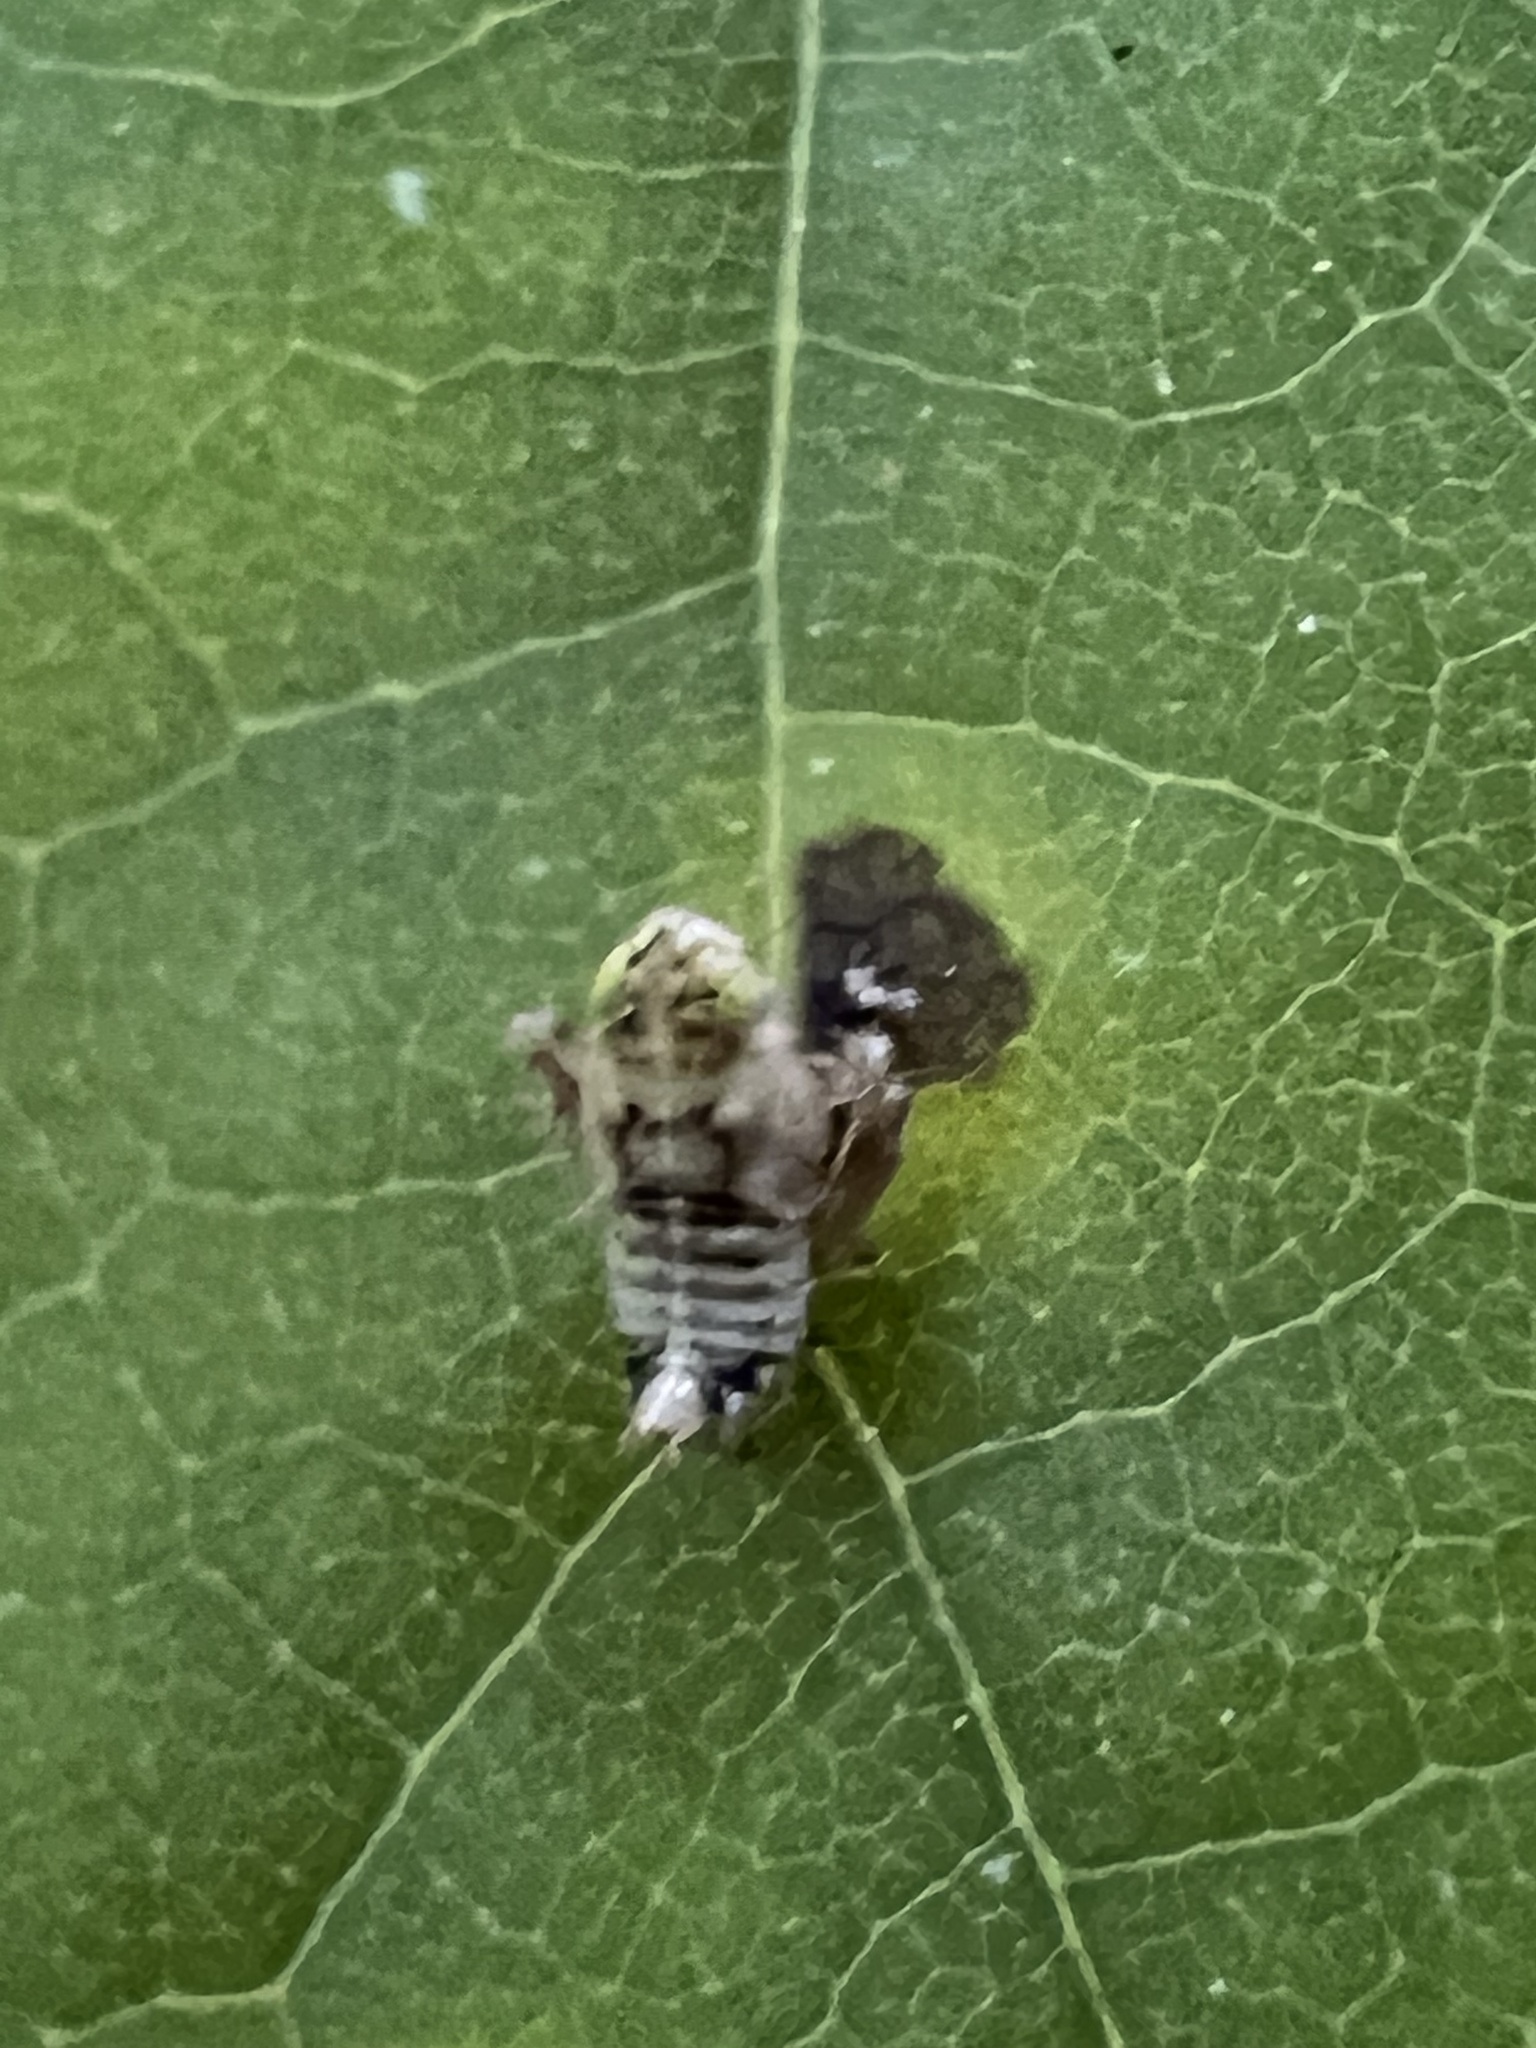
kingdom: Animalia
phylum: Arthropoda
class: Insecta
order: Hemiptera
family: Cicadellidae
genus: Jikradia
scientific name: Jikradia olitoria
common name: Coppery leafhopper
